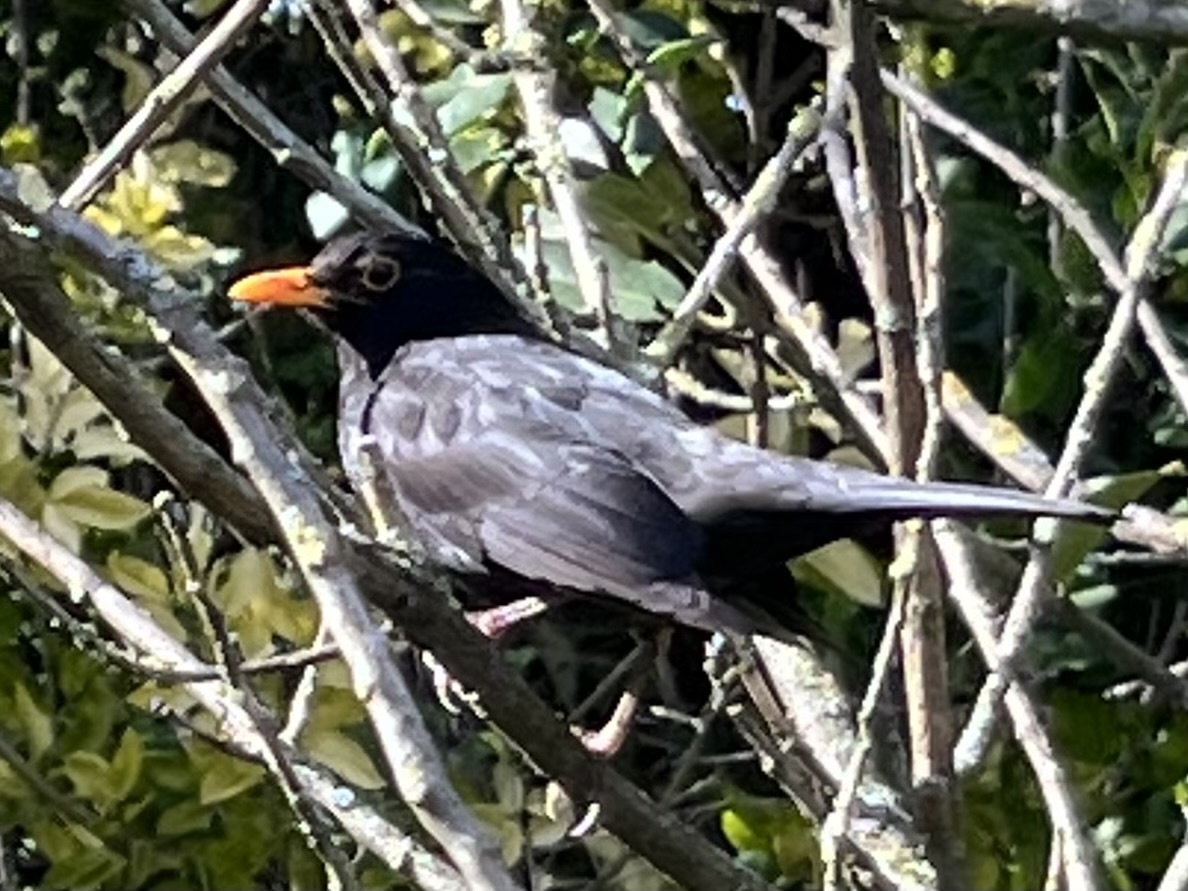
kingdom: Animalia
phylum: Chordata
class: Aves
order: Passeriformes
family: Turdidae
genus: Turdus
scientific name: Turdus merula
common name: Common blackbird
